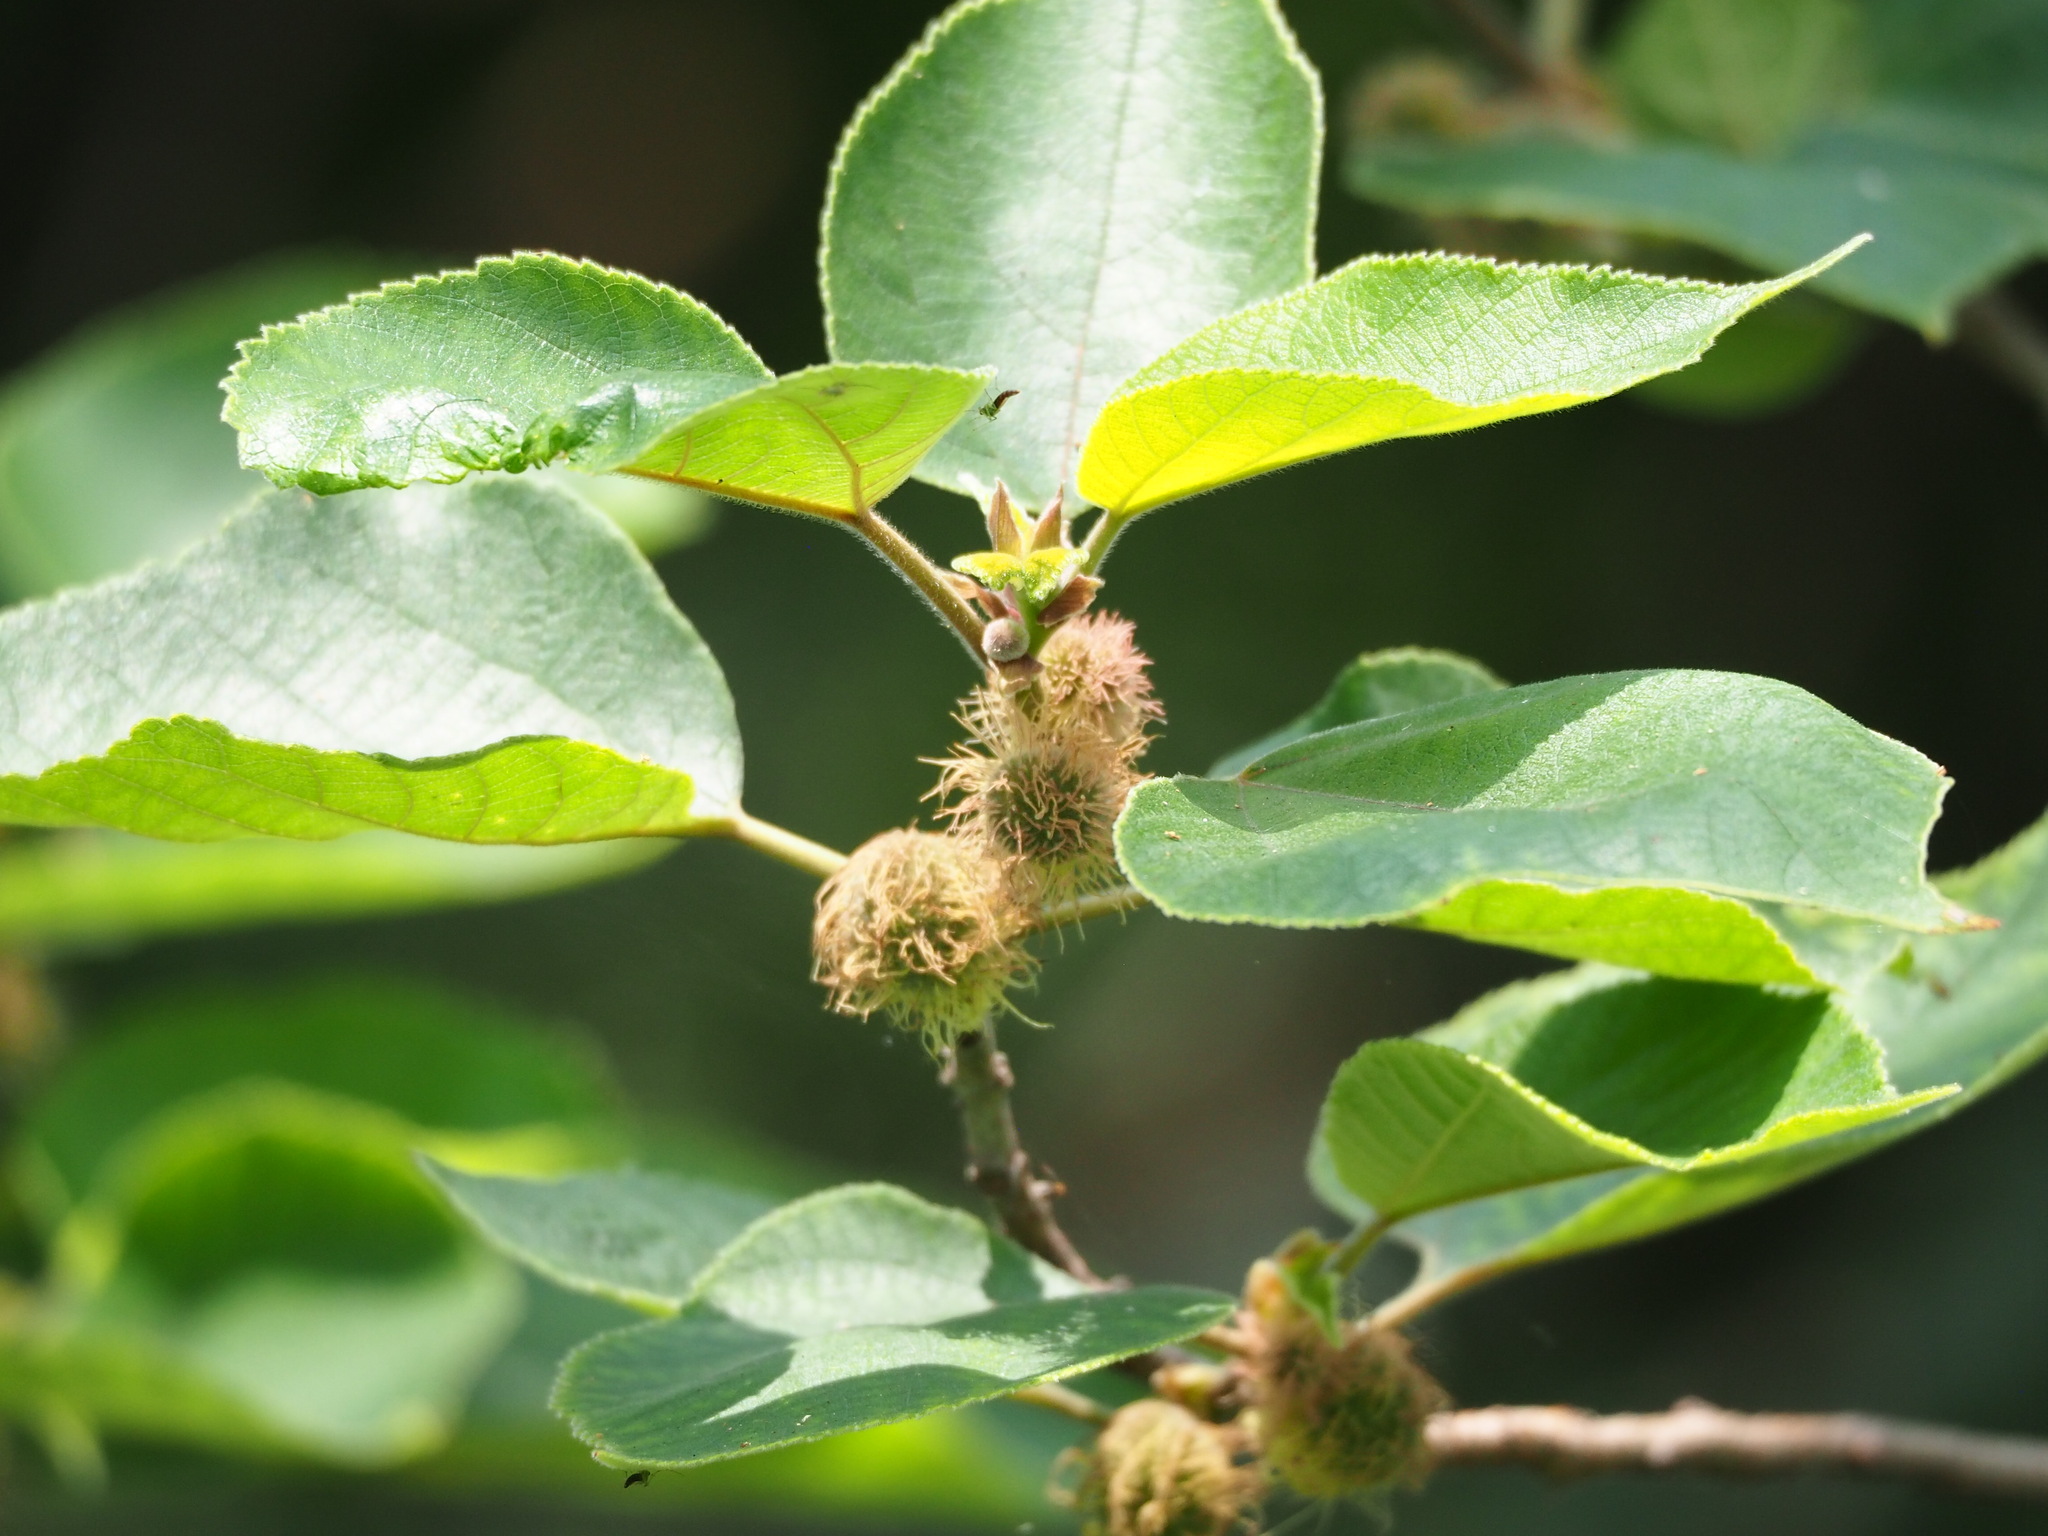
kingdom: Plantae
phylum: Tracheophyta
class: Magnoliopsida
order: Rosales
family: Moraceae
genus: Broussonetia
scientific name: Broussonetia papyrifera
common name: Paper mulberry
